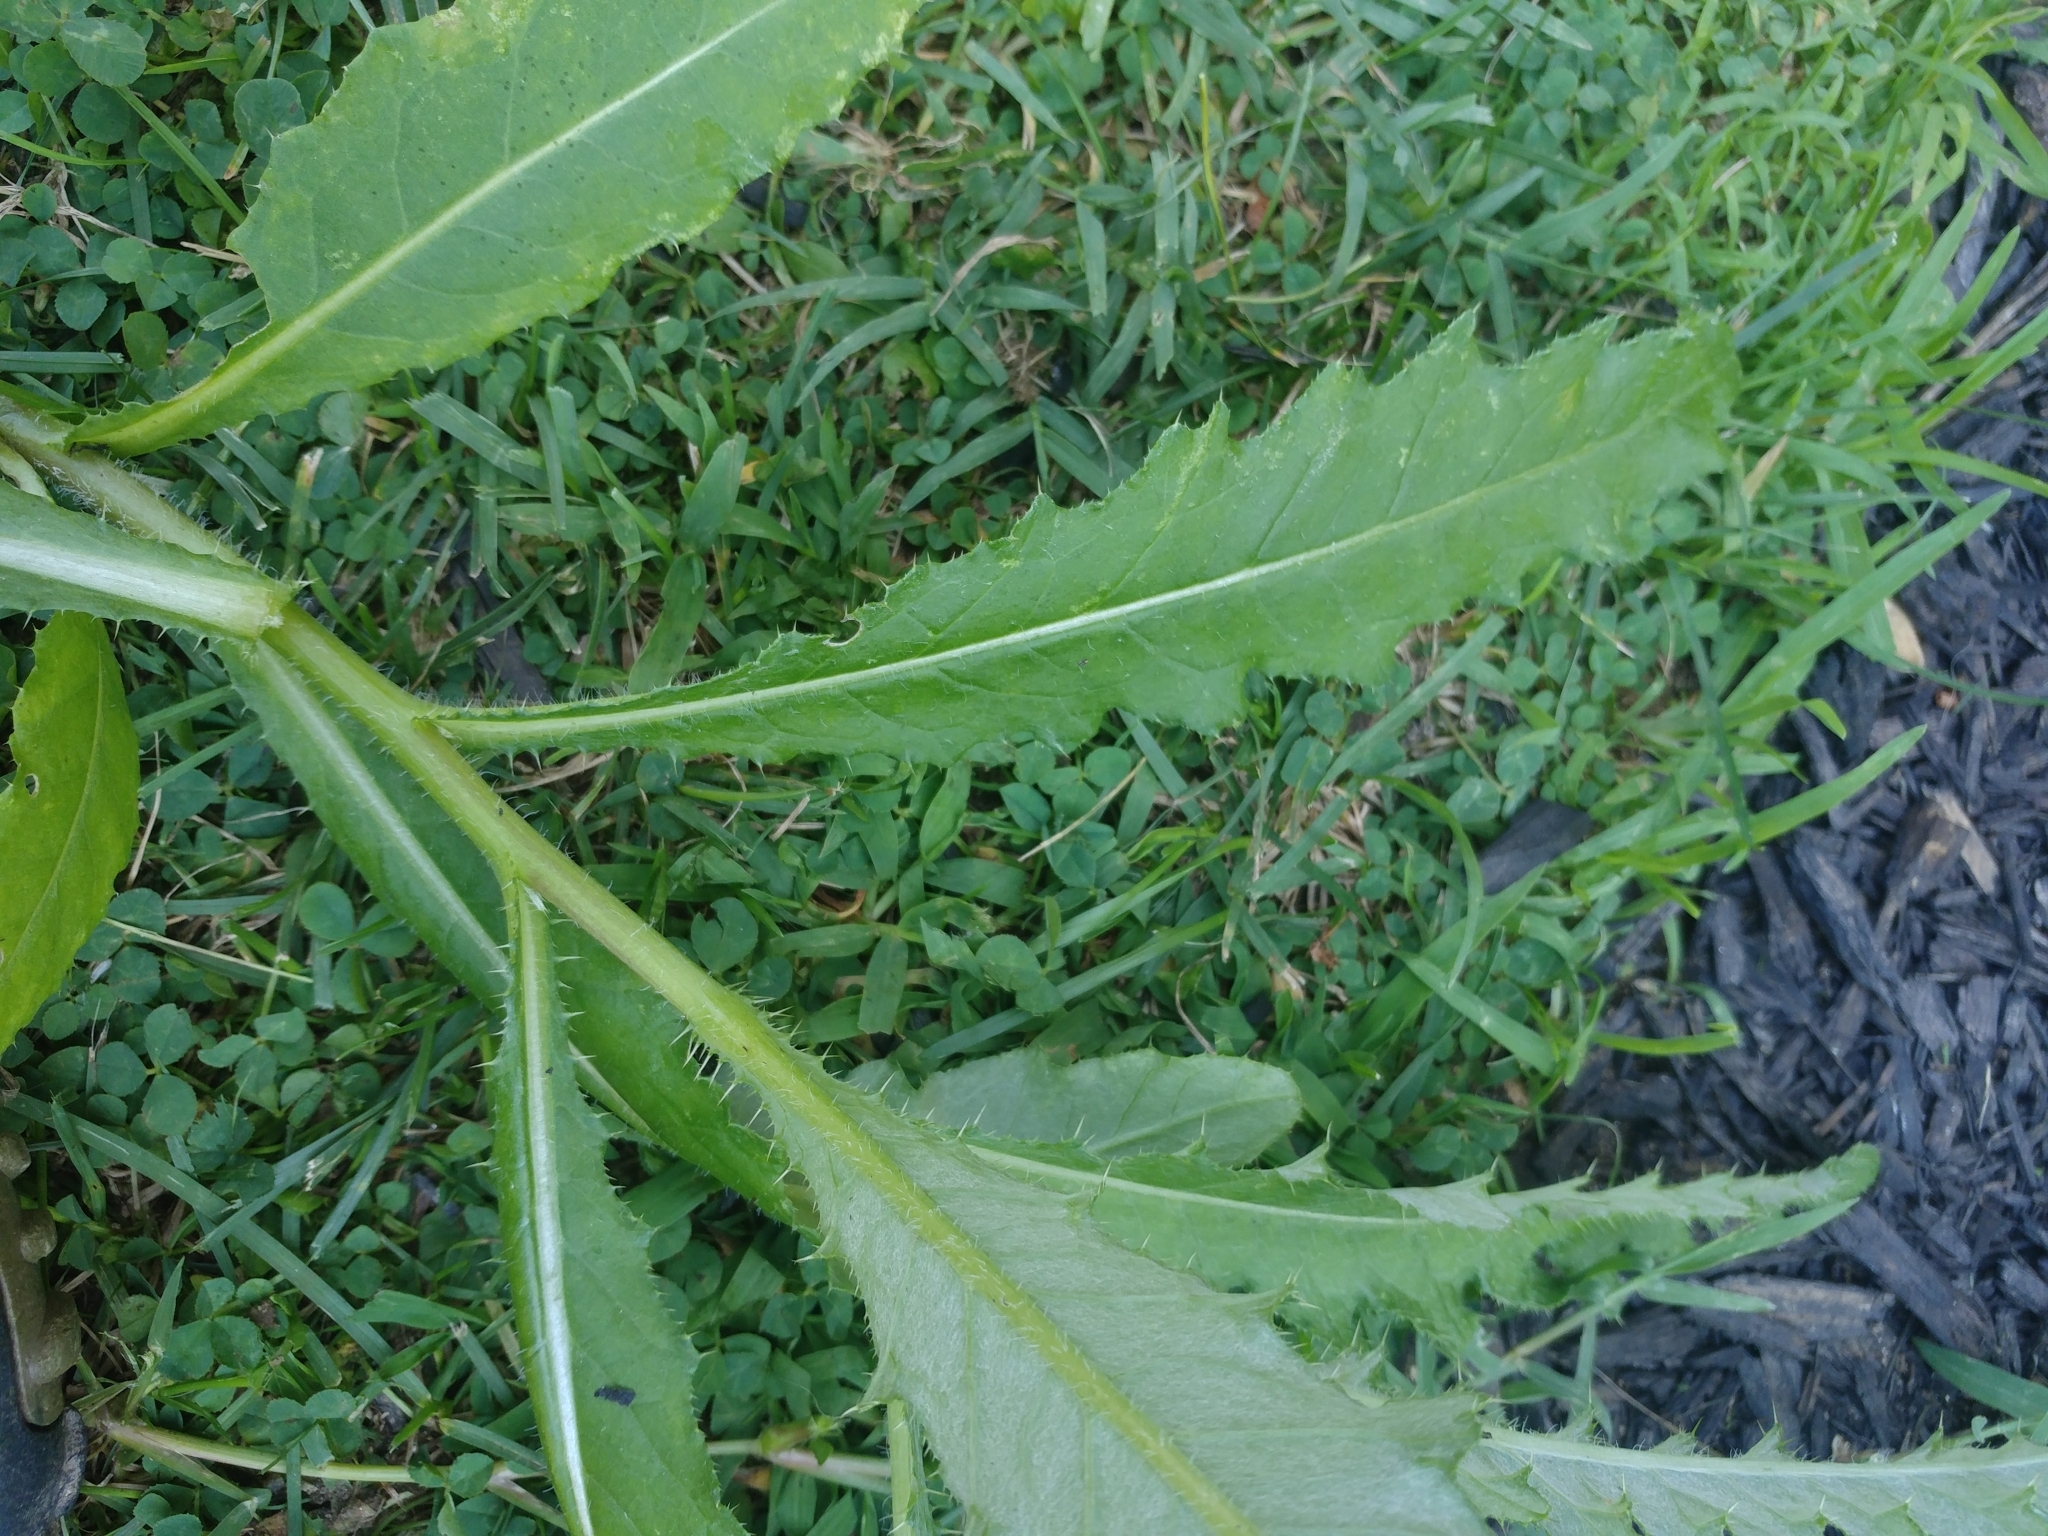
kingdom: Plantae
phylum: Tracheophyta
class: Magnoliopsida
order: Asterales
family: Asteraceae
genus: Cirsium
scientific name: Cirsium arvense
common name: Creeping thistle
